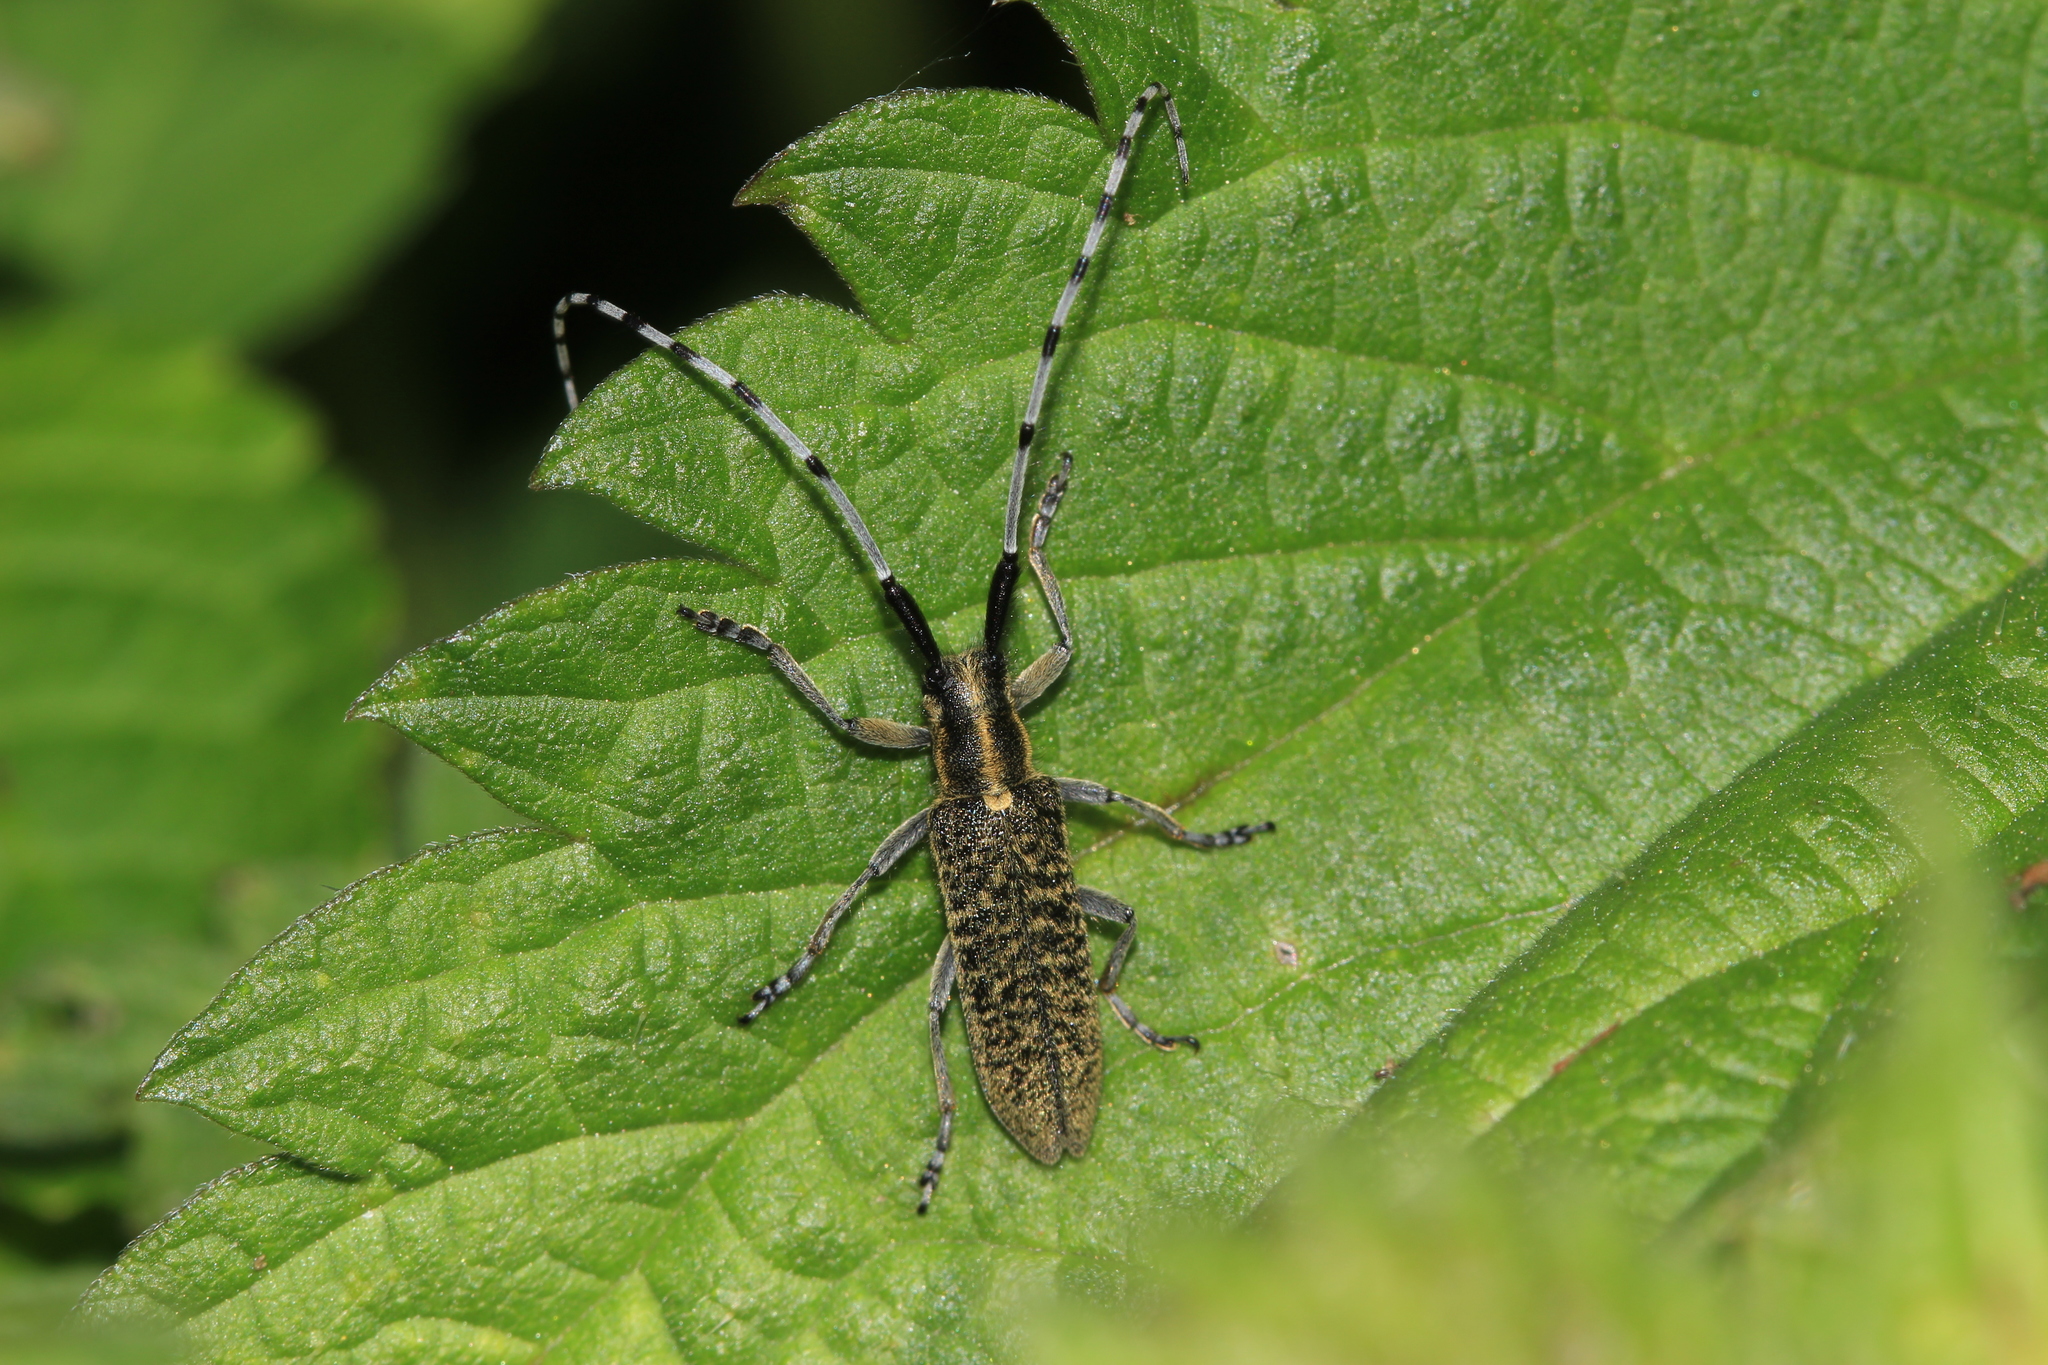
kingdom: Animalia
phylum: Arthropoda
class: Insecta
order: Coleoptera
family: Cerambycidae
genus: Agapanthia
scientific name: Agapanthia villosoviridescens
